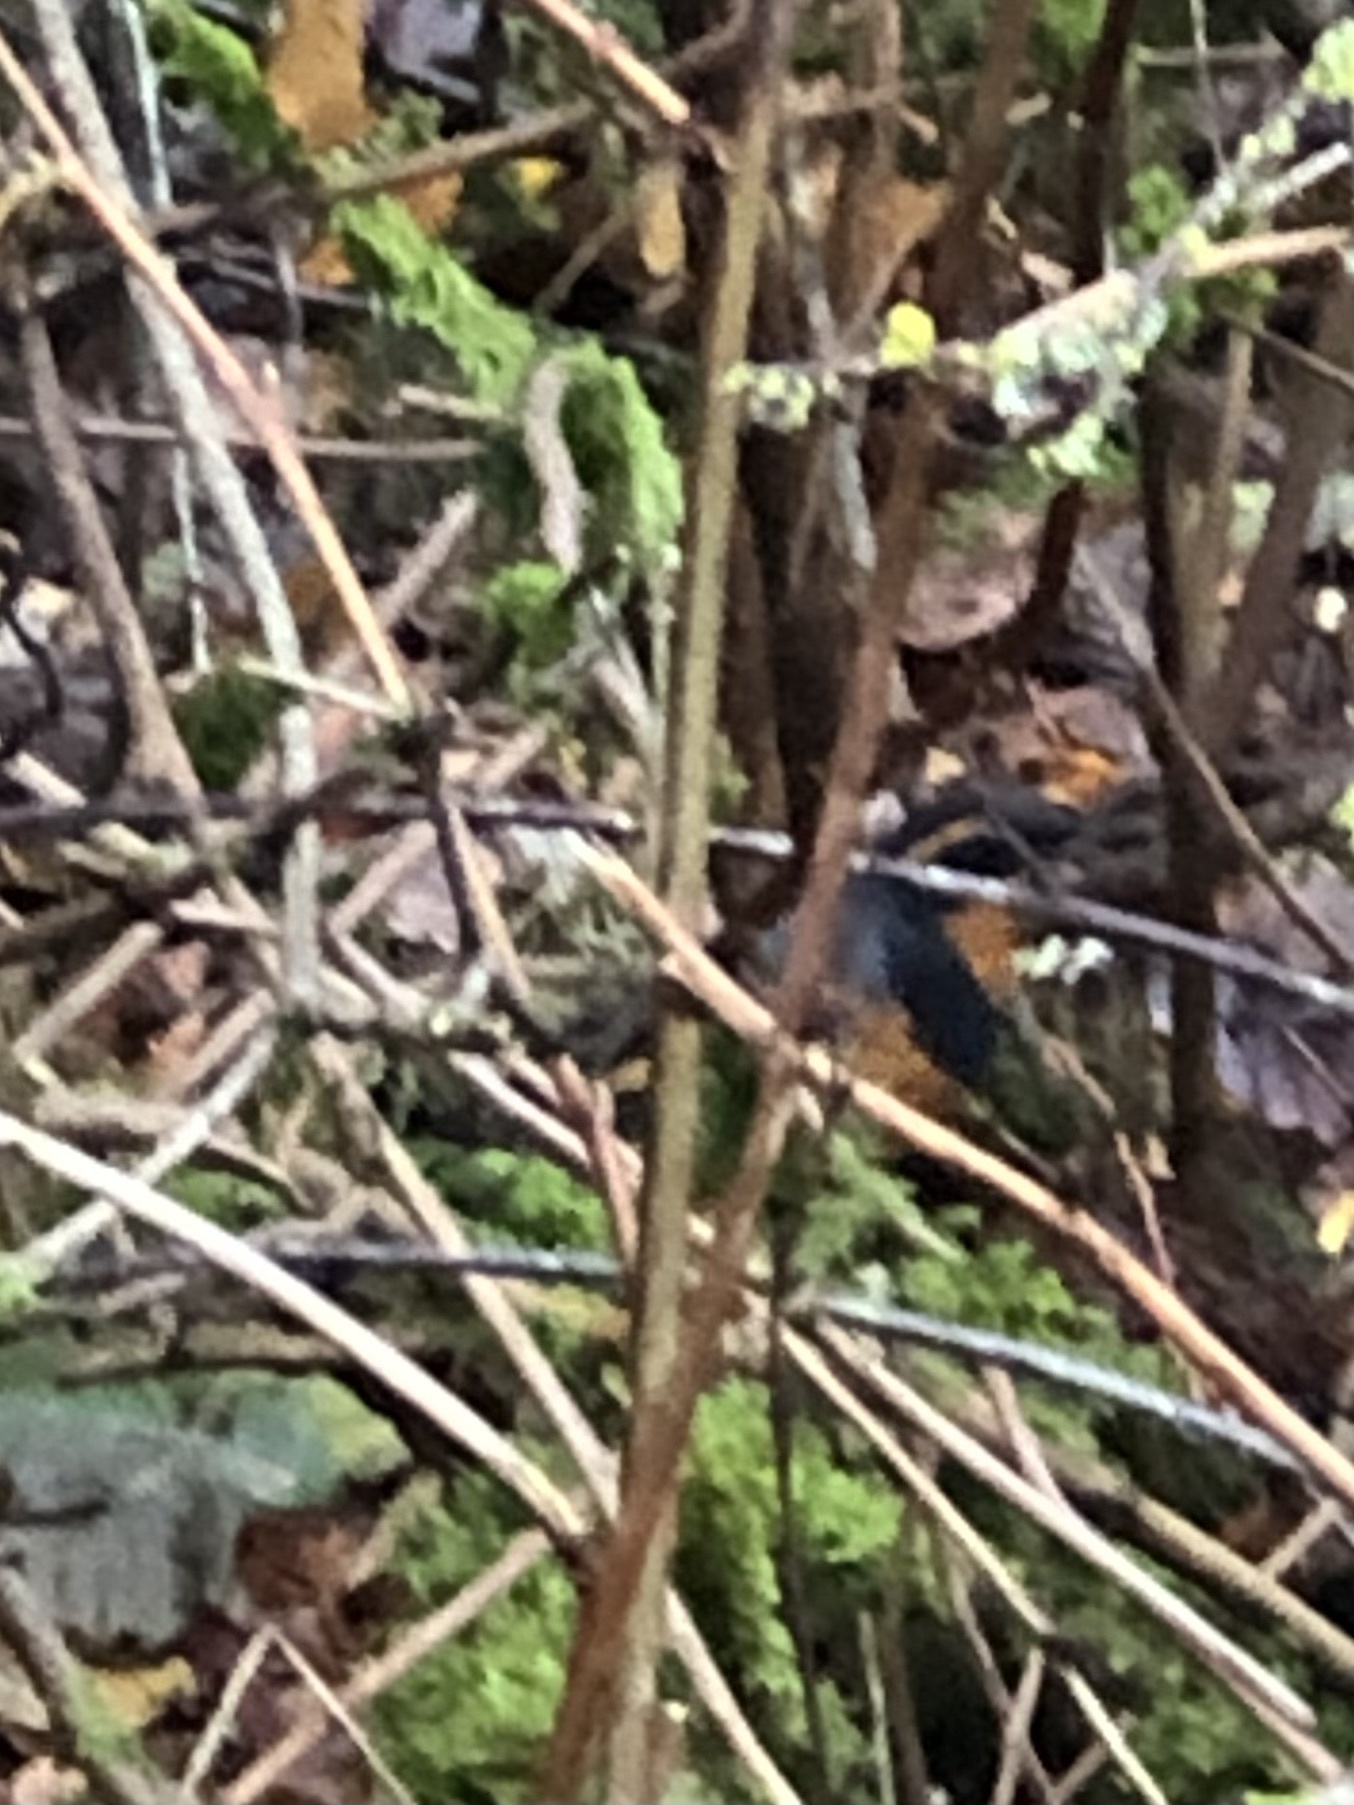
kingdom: Animalia
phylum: Chordata
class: Aves
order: Passeriformes
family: Turdidae
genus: Ixoreus
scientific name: Ixoreus naevius
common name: Varied thrush
